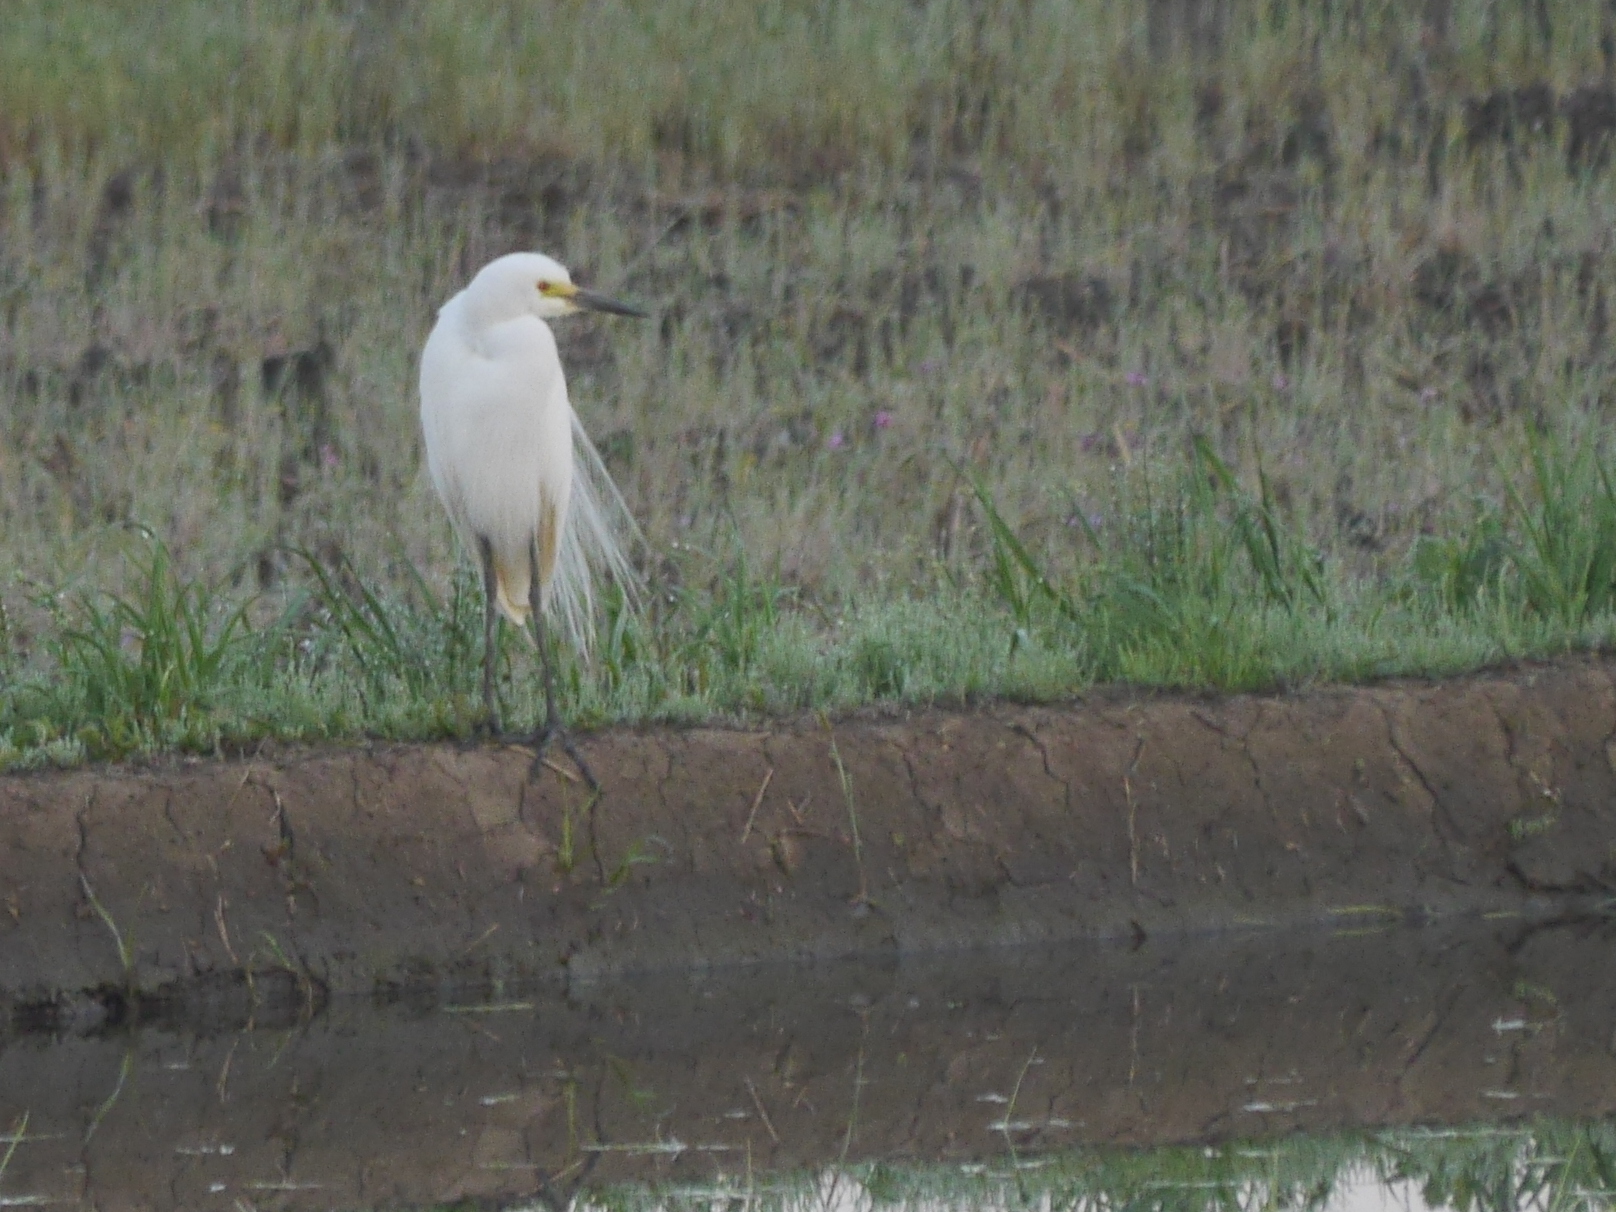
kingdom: Animalia
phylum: Chordata
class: Aves
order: Pelecaniformes
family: Ardeidae
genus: Egretta
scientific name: Egretta intermedia
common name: Intermediate egret
